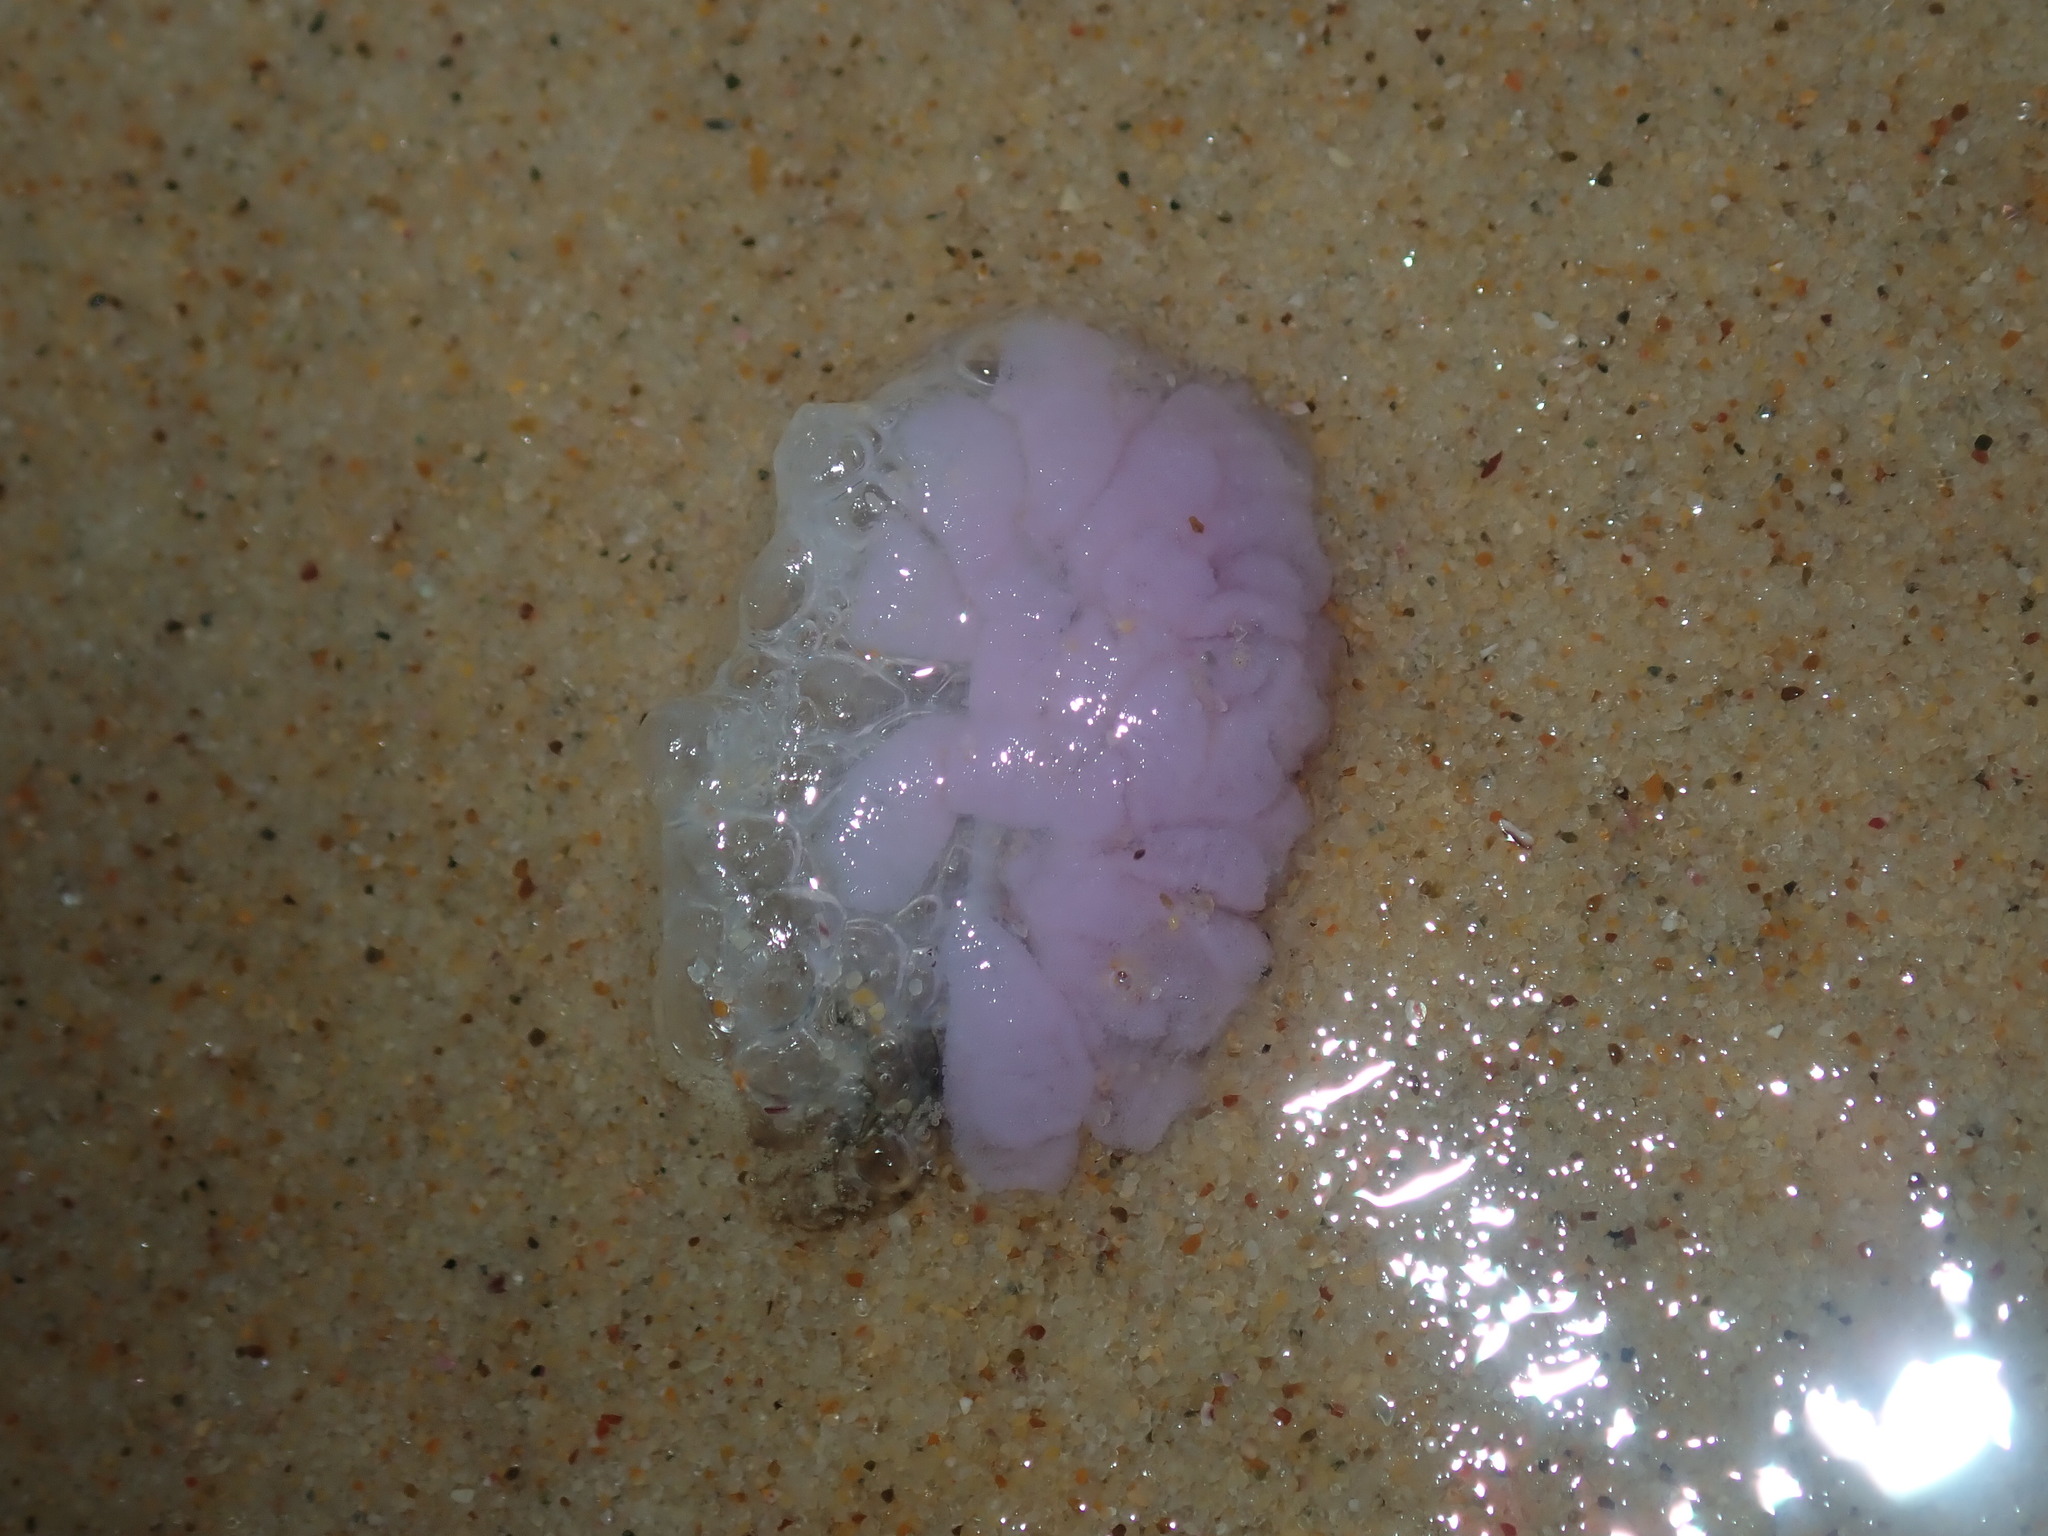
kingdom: Animalia
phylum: Mollusca
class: Gastropoda
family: Epitoniidae
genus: Janthina
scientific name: Janthina
